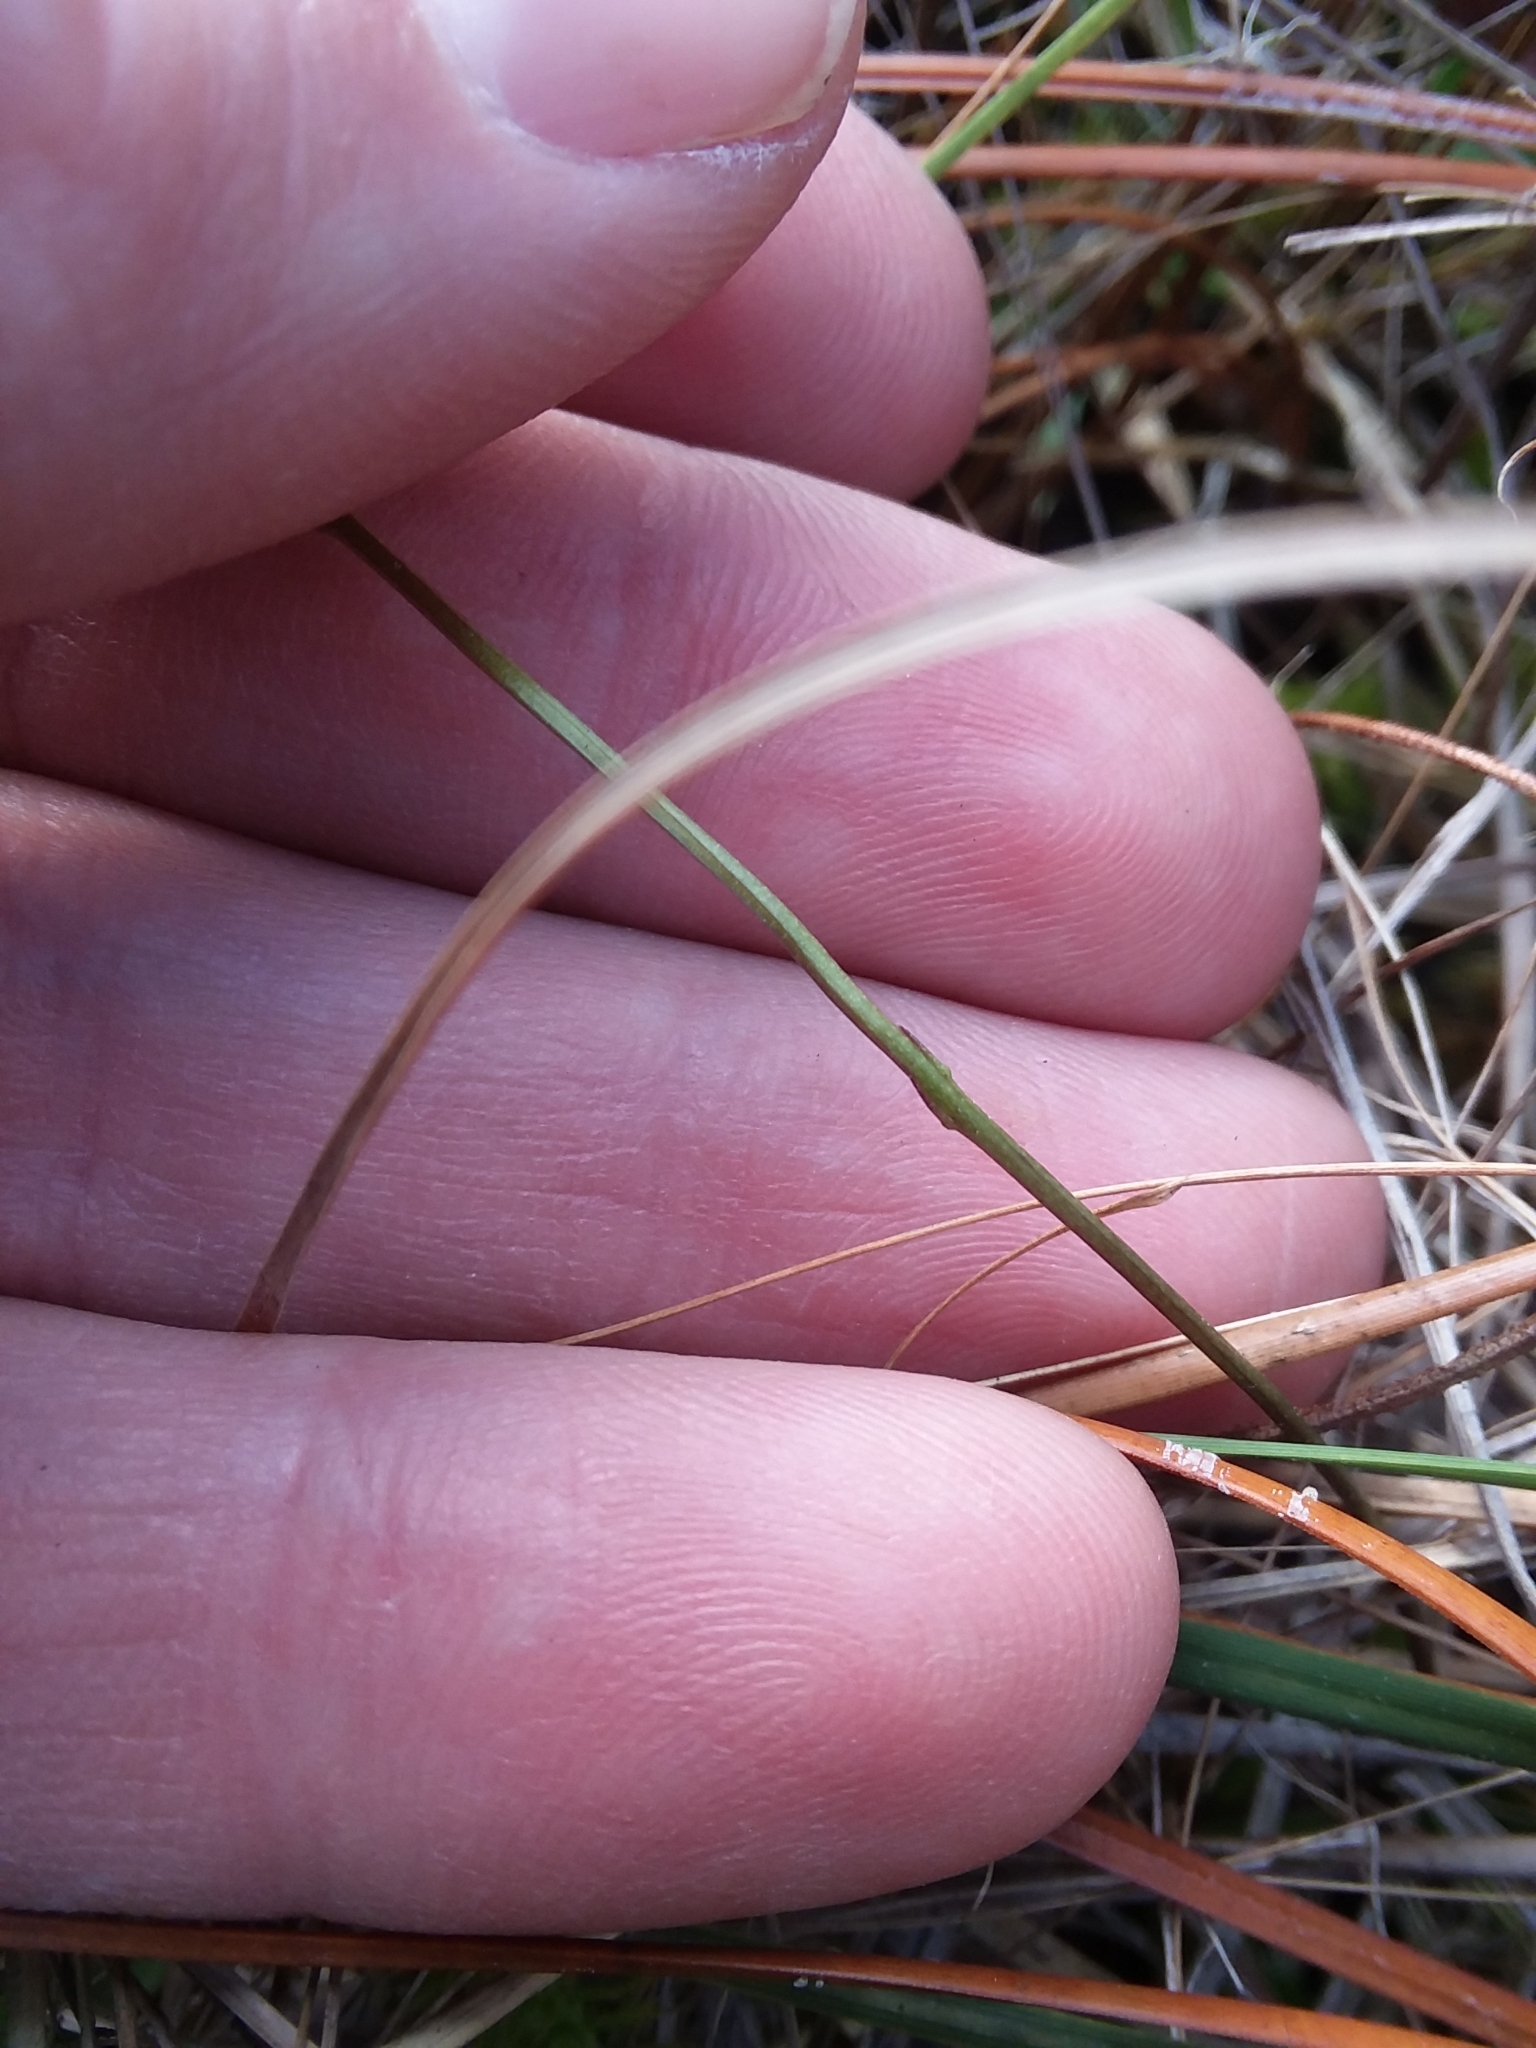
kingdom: Plantae
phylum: Tracheophyta
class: Magnoliopsida
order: Gentianales
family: Gentianaceae
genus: Bartonia
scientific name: Bartonia verna
